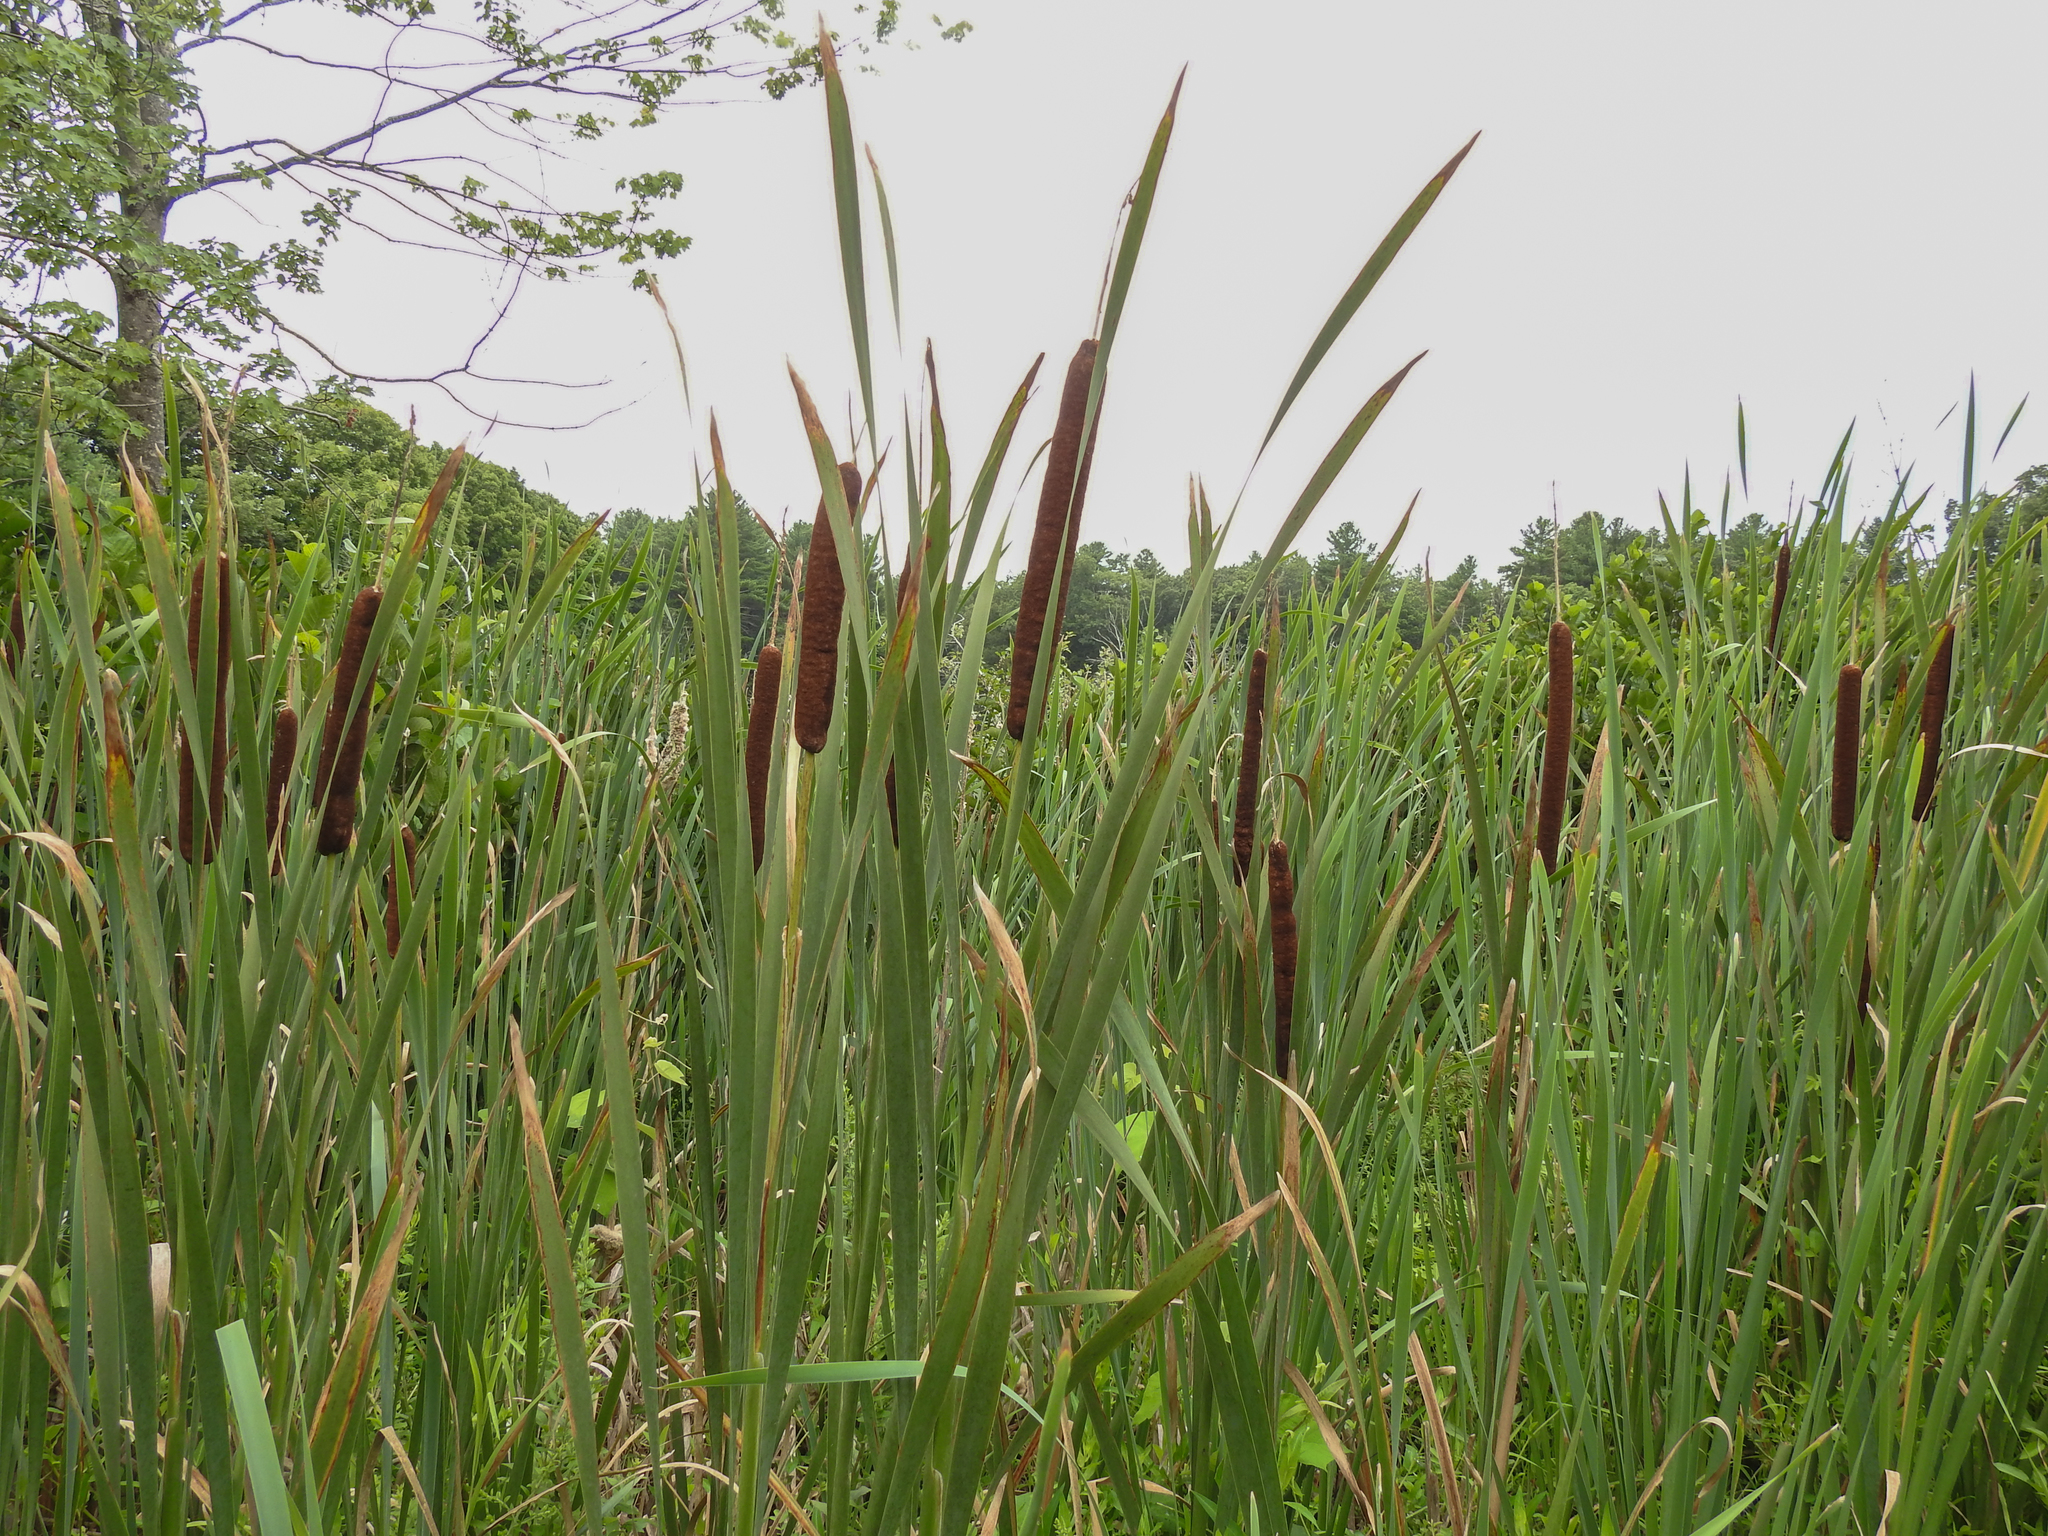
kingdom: Plantae
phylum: Tracheophyta
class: Liliopsida
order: Poales
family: Typhaceae
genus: Typha
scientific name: Typha latifolia
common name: Broadleaf cattail
